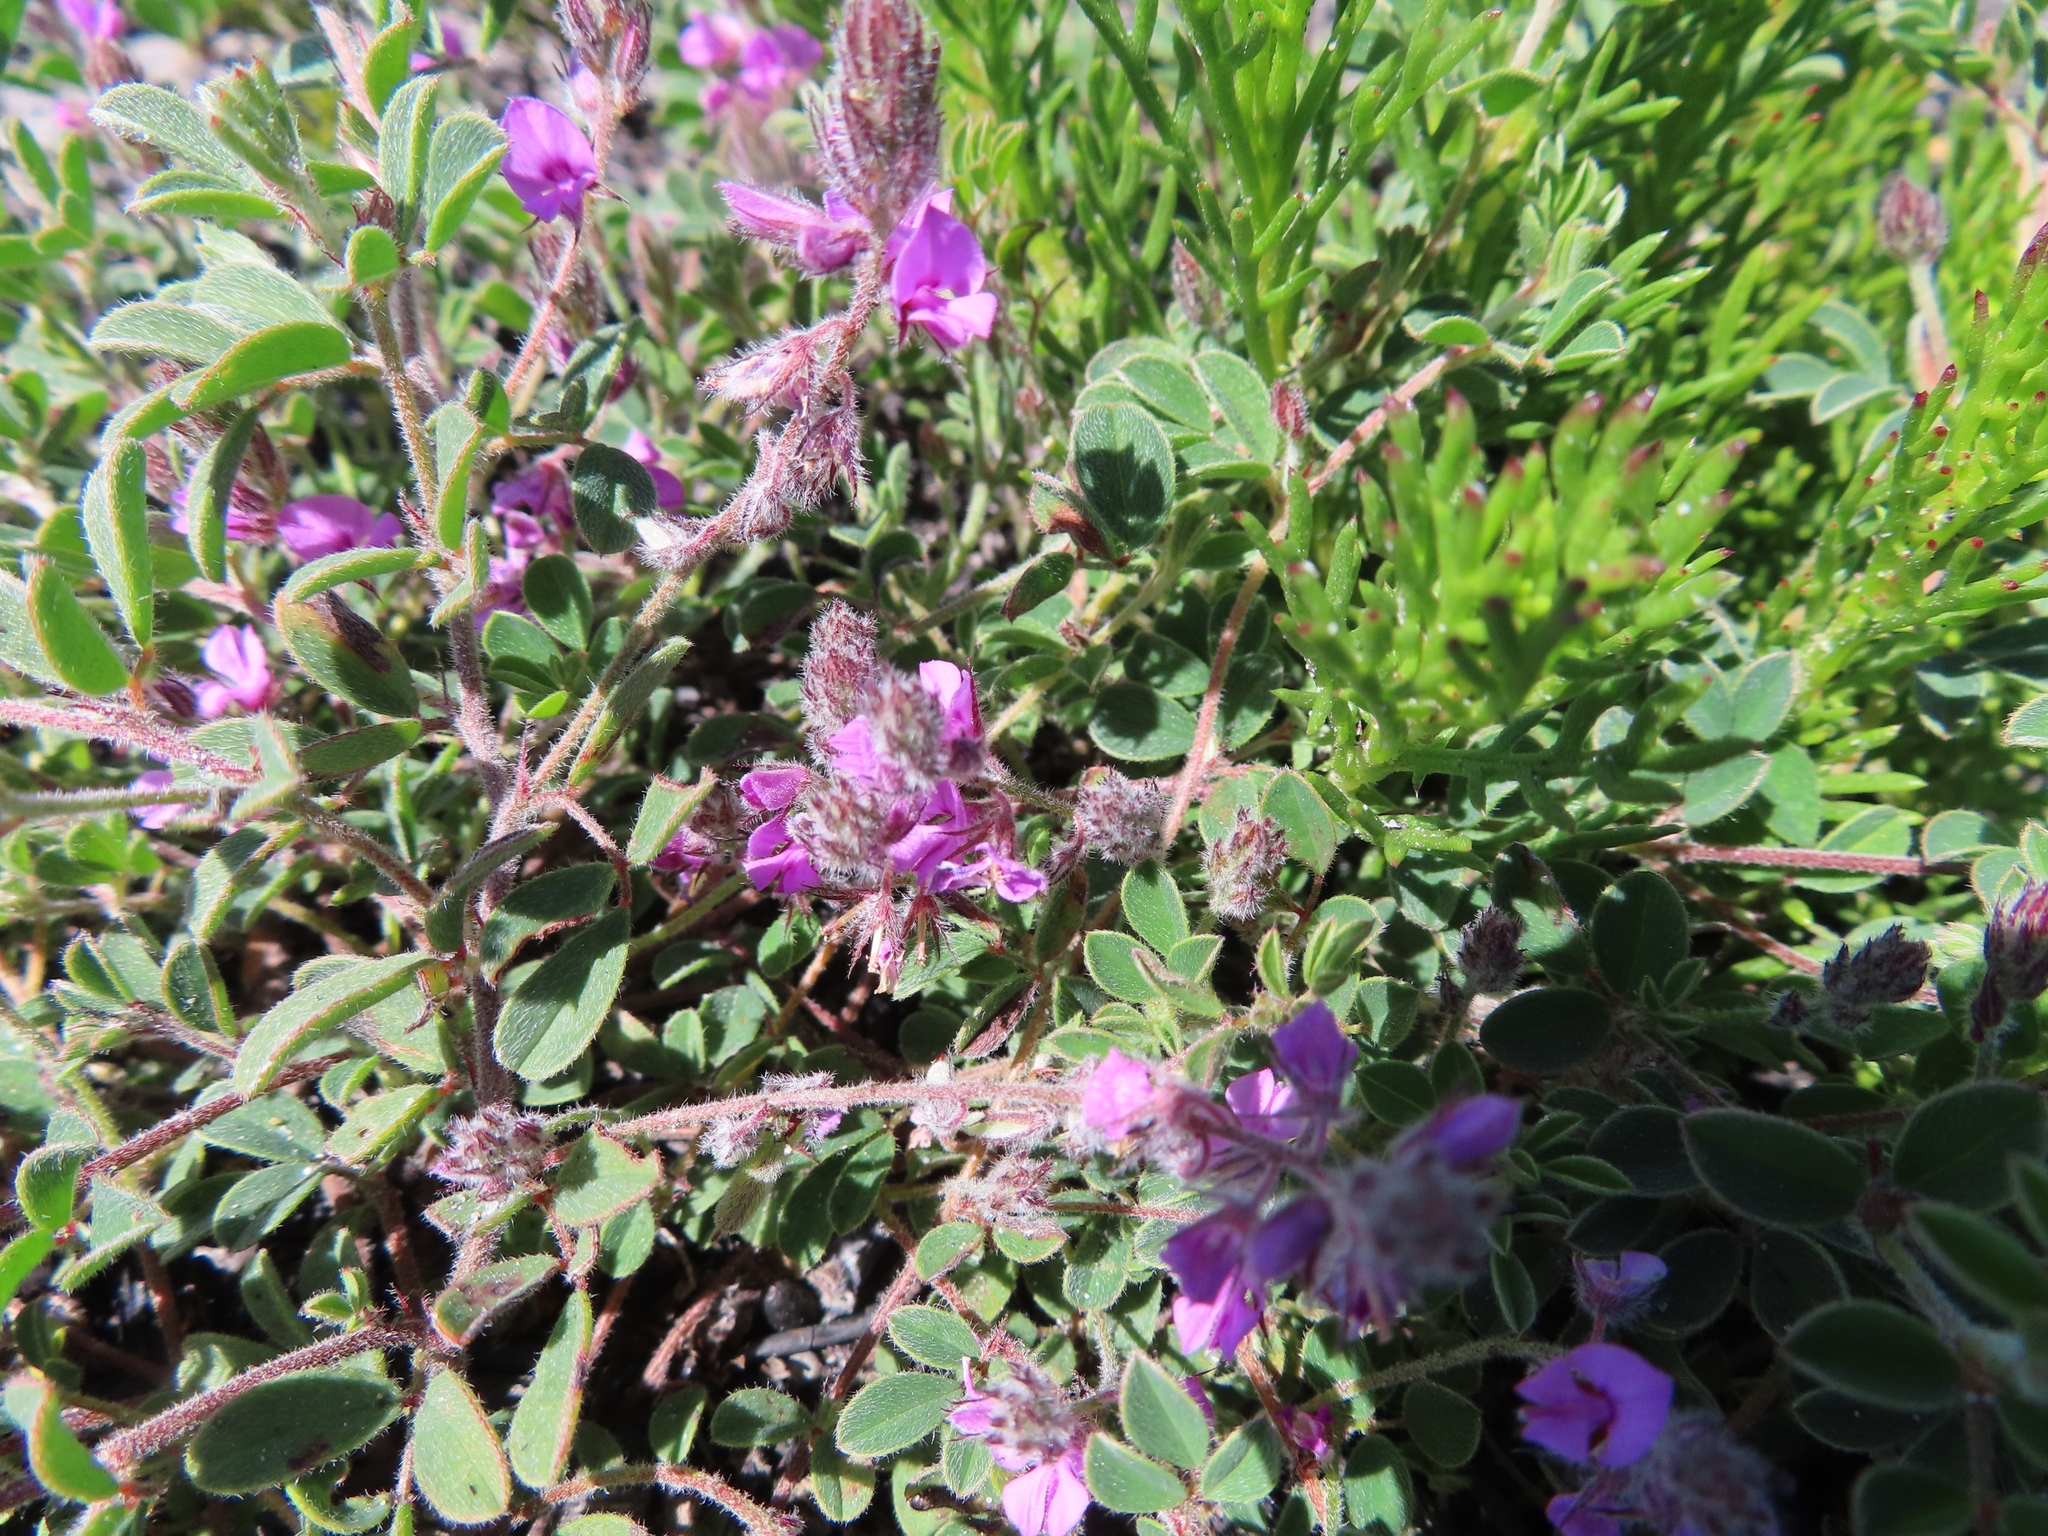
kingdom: Plantae
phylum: Tracheophyta
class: Magnoliopsida
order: Fabales
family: Fabaceae
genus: Indigofera
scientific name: Indigofera
